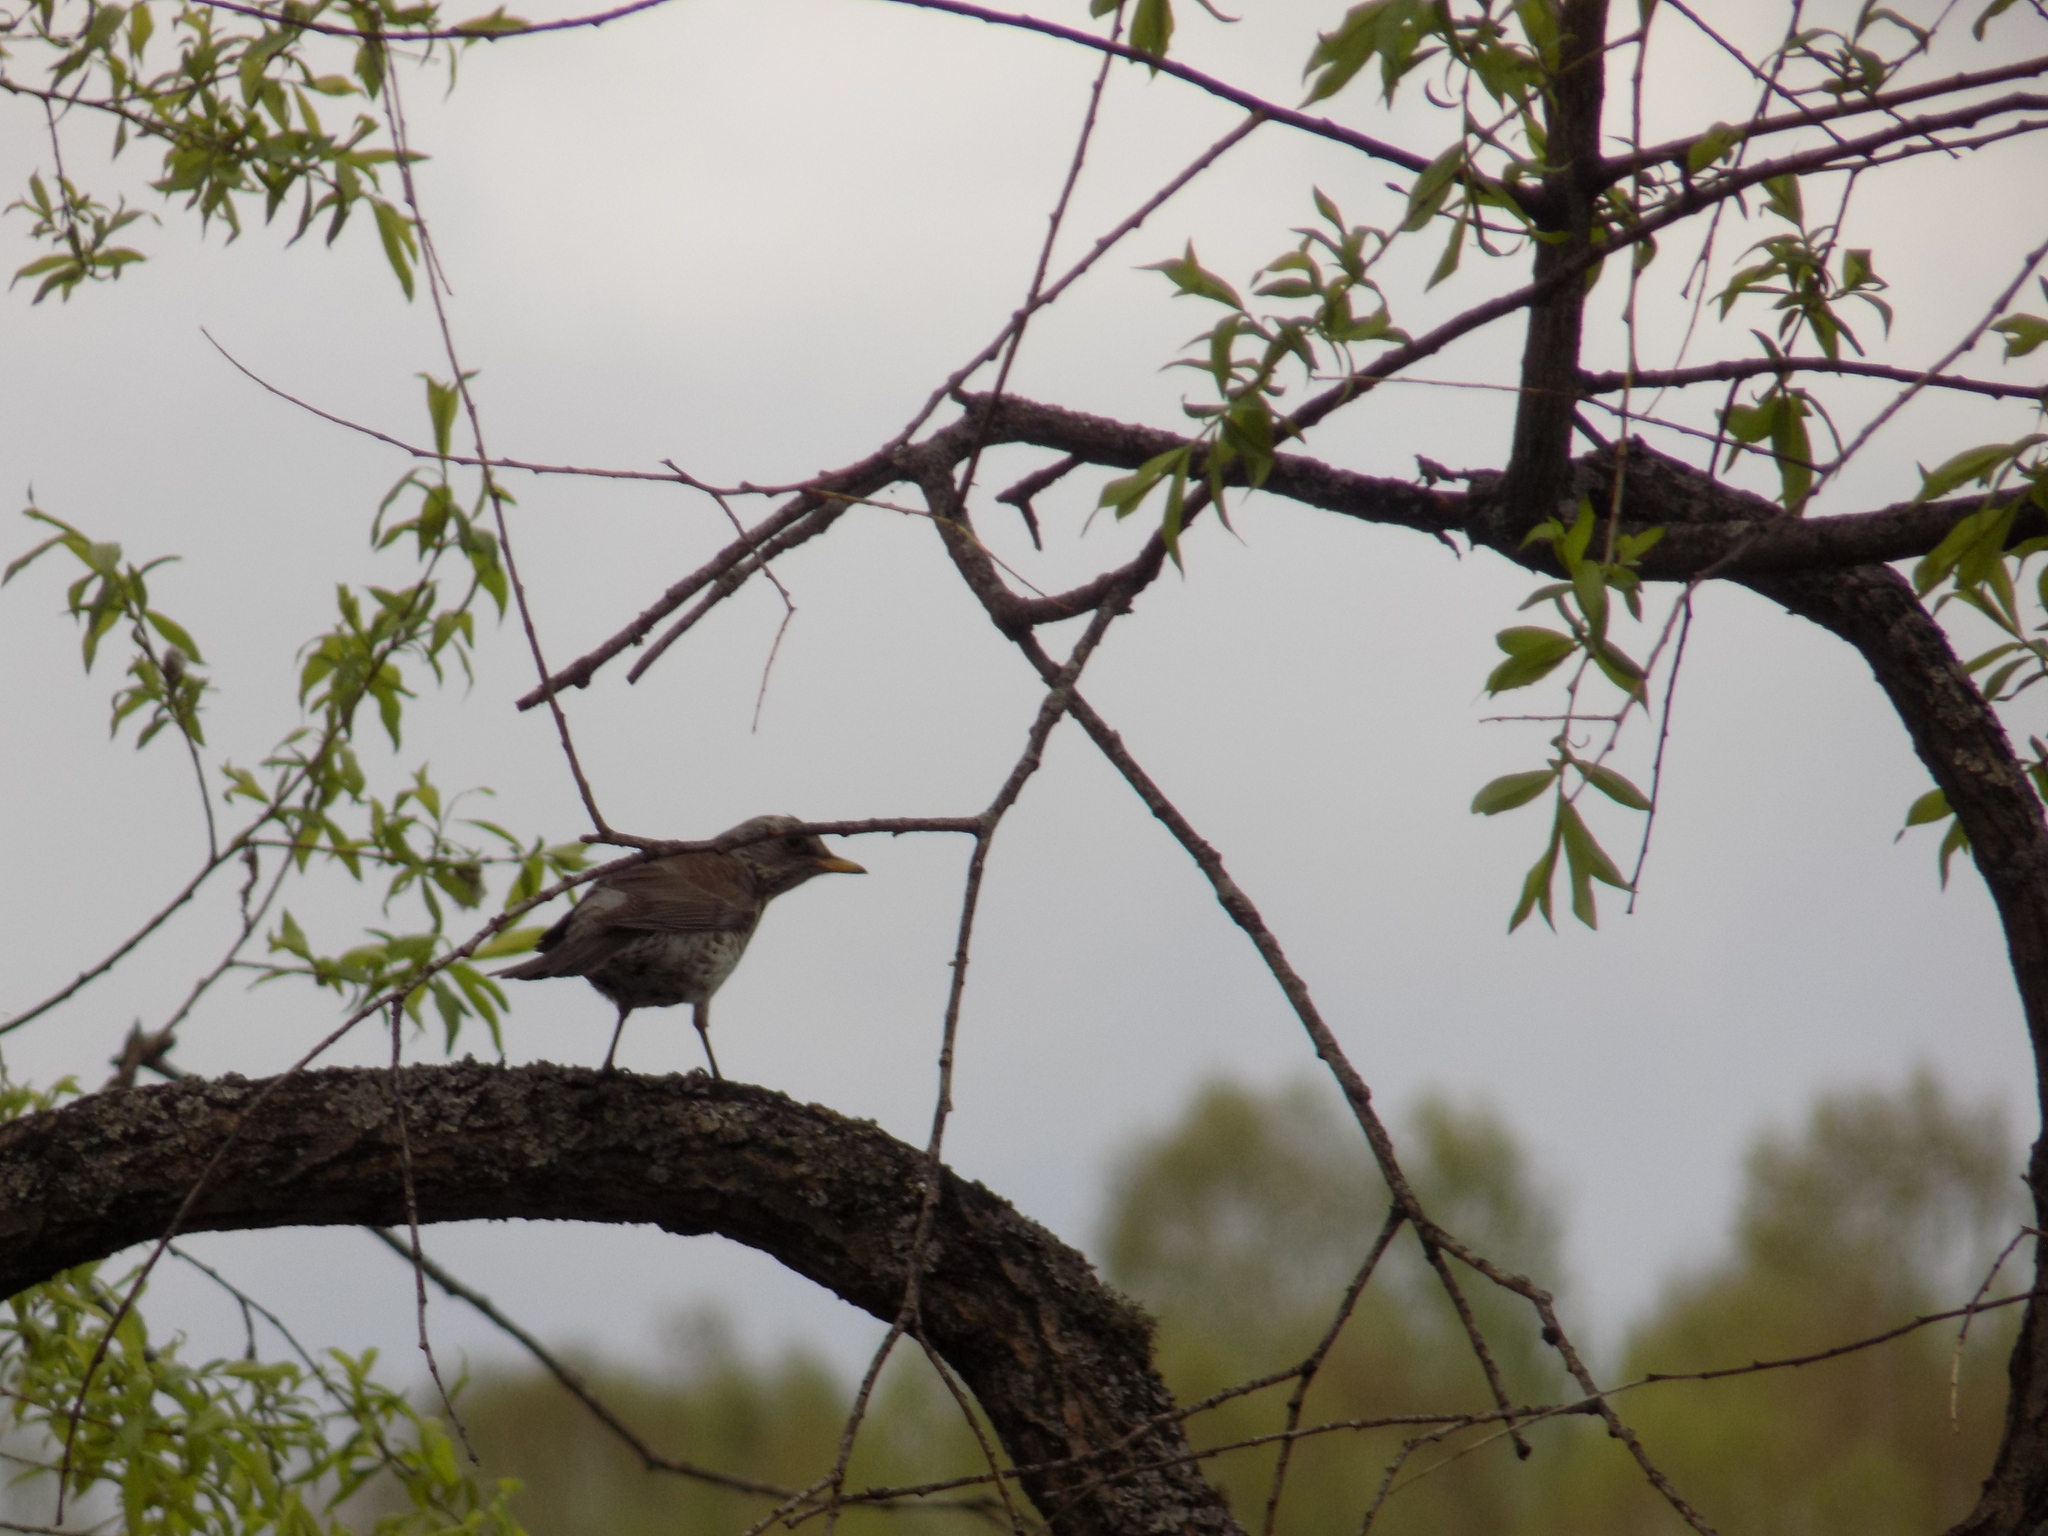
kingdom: Animalia
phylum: Chordata
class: Aves
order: Passeriformes
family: Turdidae
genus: Turdus
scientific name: Turdus pilaris
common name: Fieldfare
